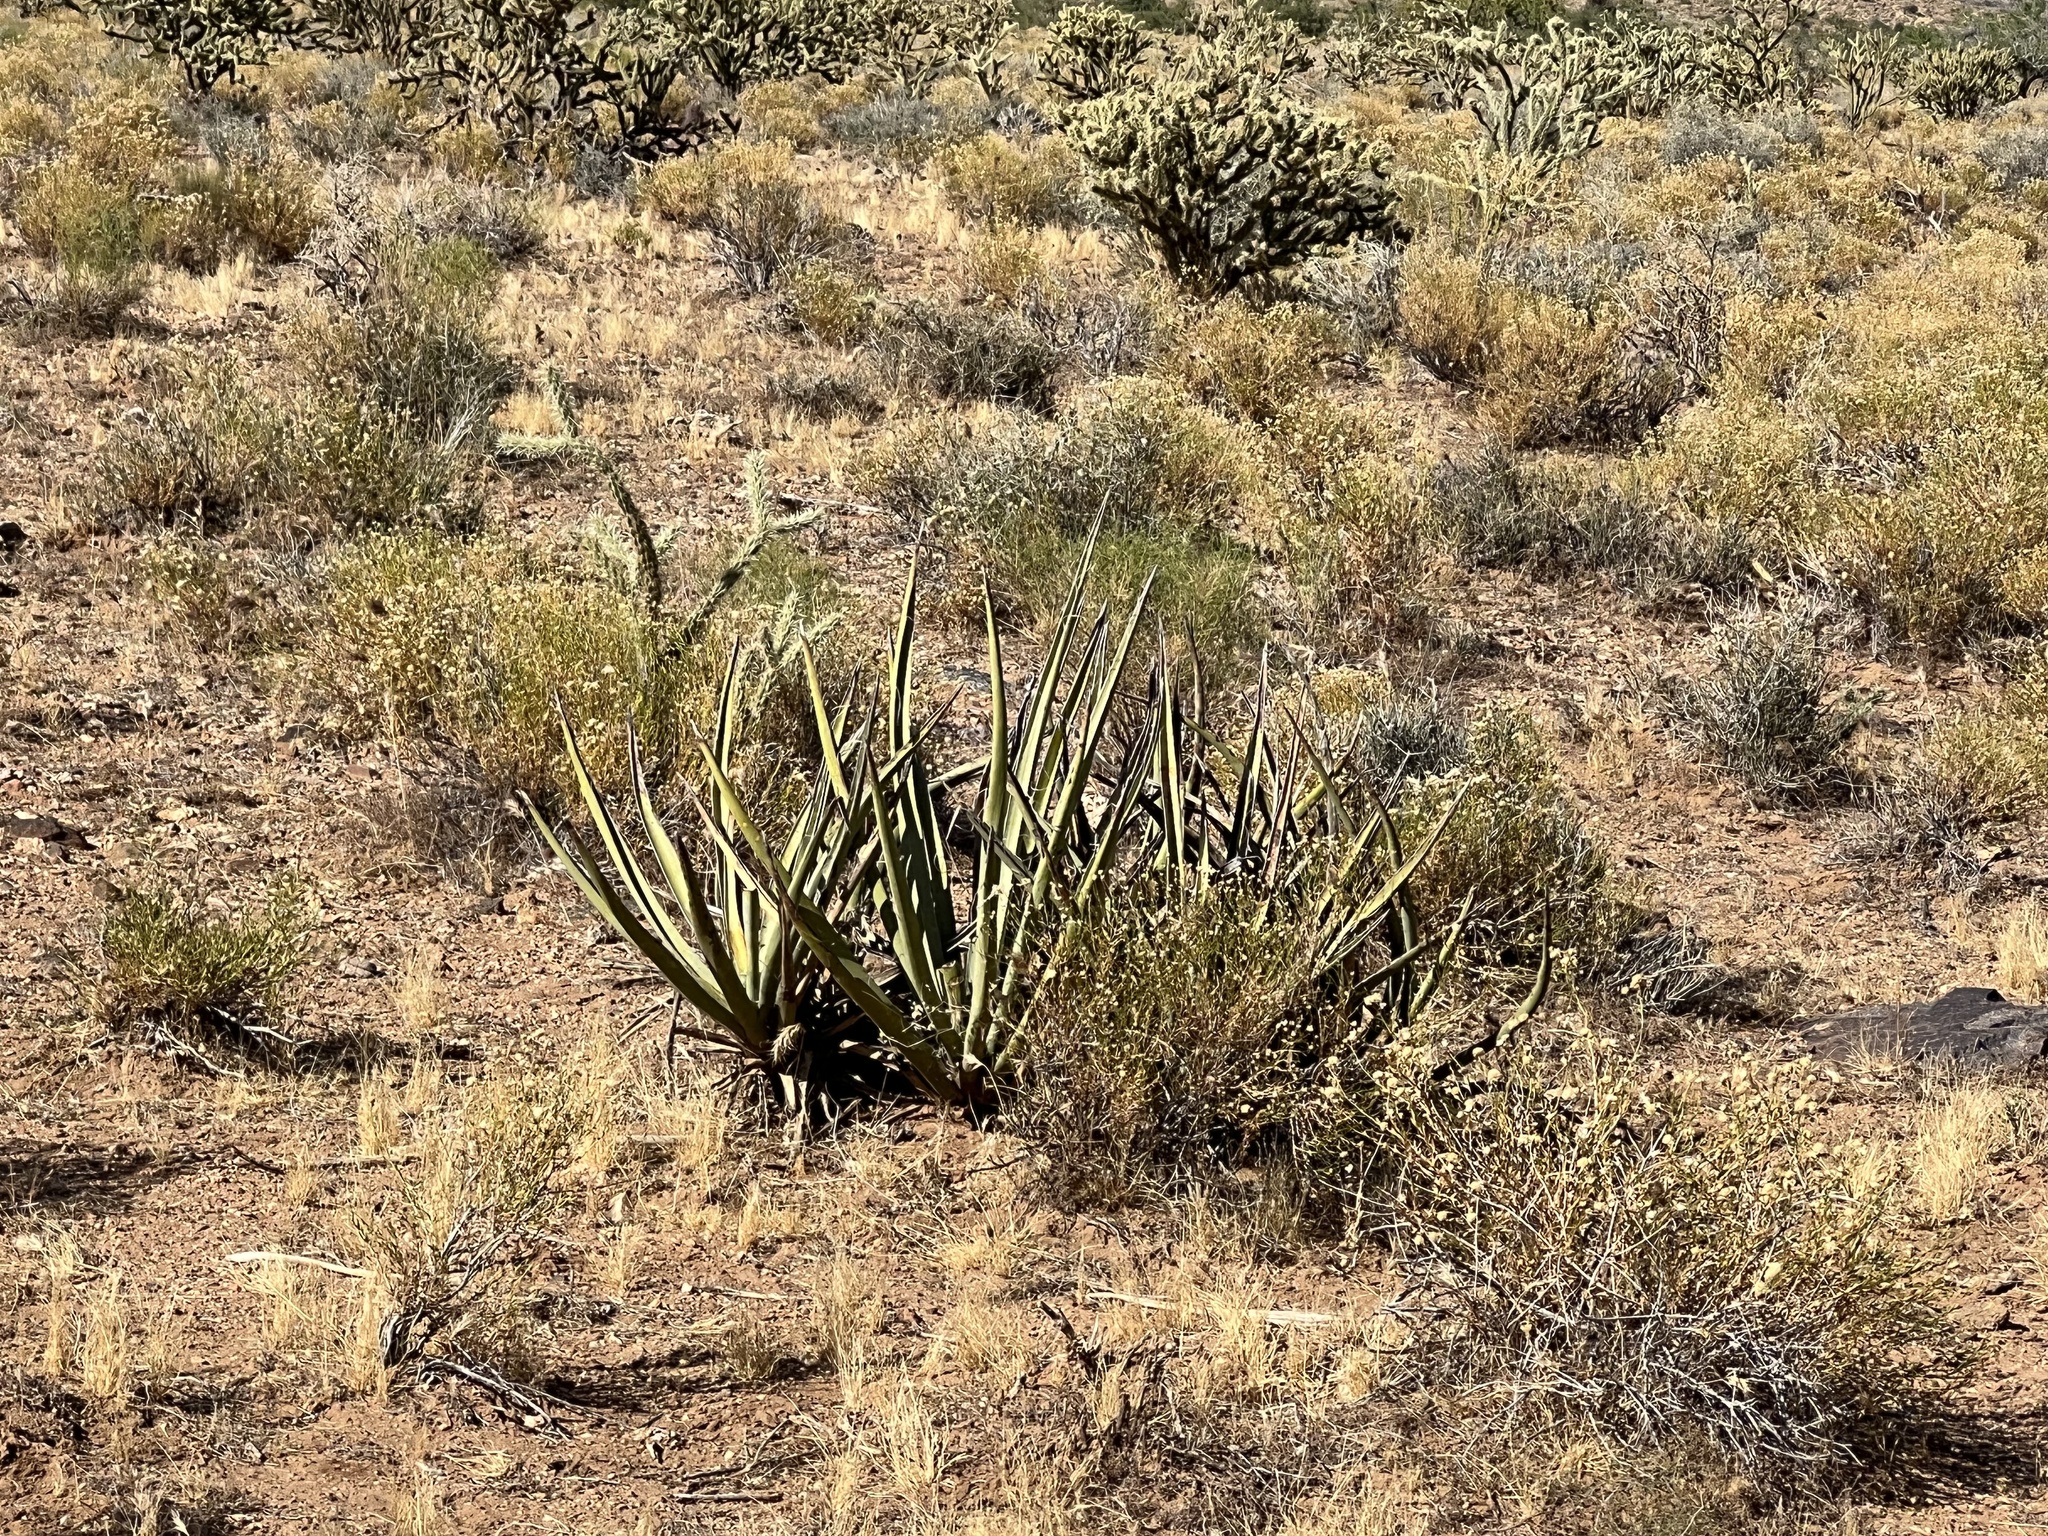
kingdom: Plantae
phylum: Tracheophyta
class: Liliopsida
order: Asparagales
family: Asparagaceae
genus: Yucca
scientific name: Yucca baccata
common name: Banana yucca
